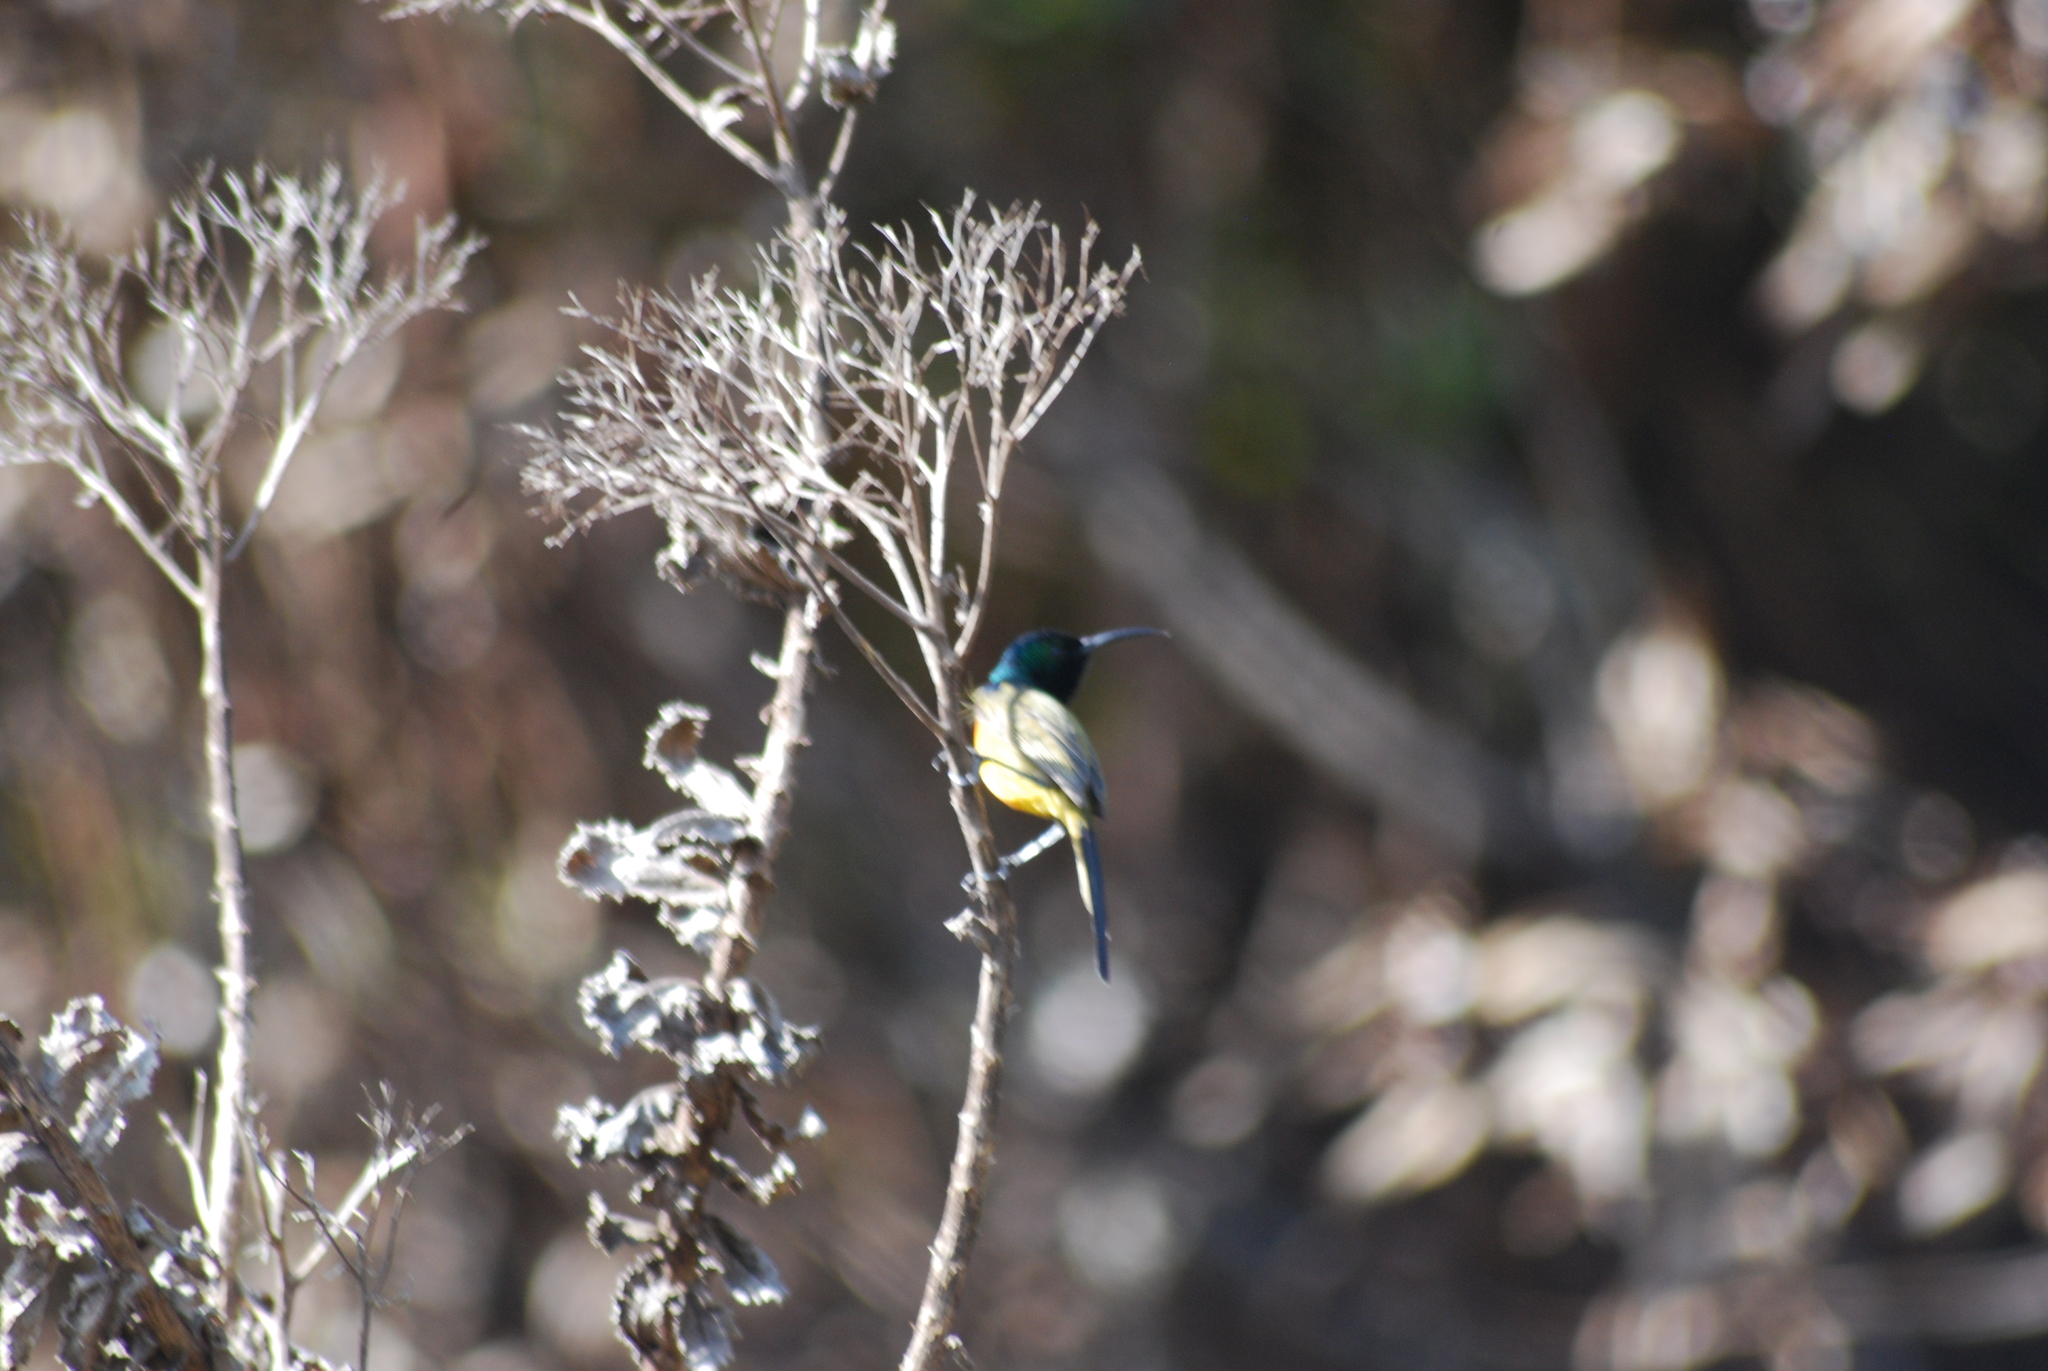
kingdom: Animalia
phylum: Chordata
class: Aves
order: Passeriformes
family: Nectariniidae
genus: Anthobaphes
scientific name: Anthobaphes violacea
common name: Orange-breasted sunbird
